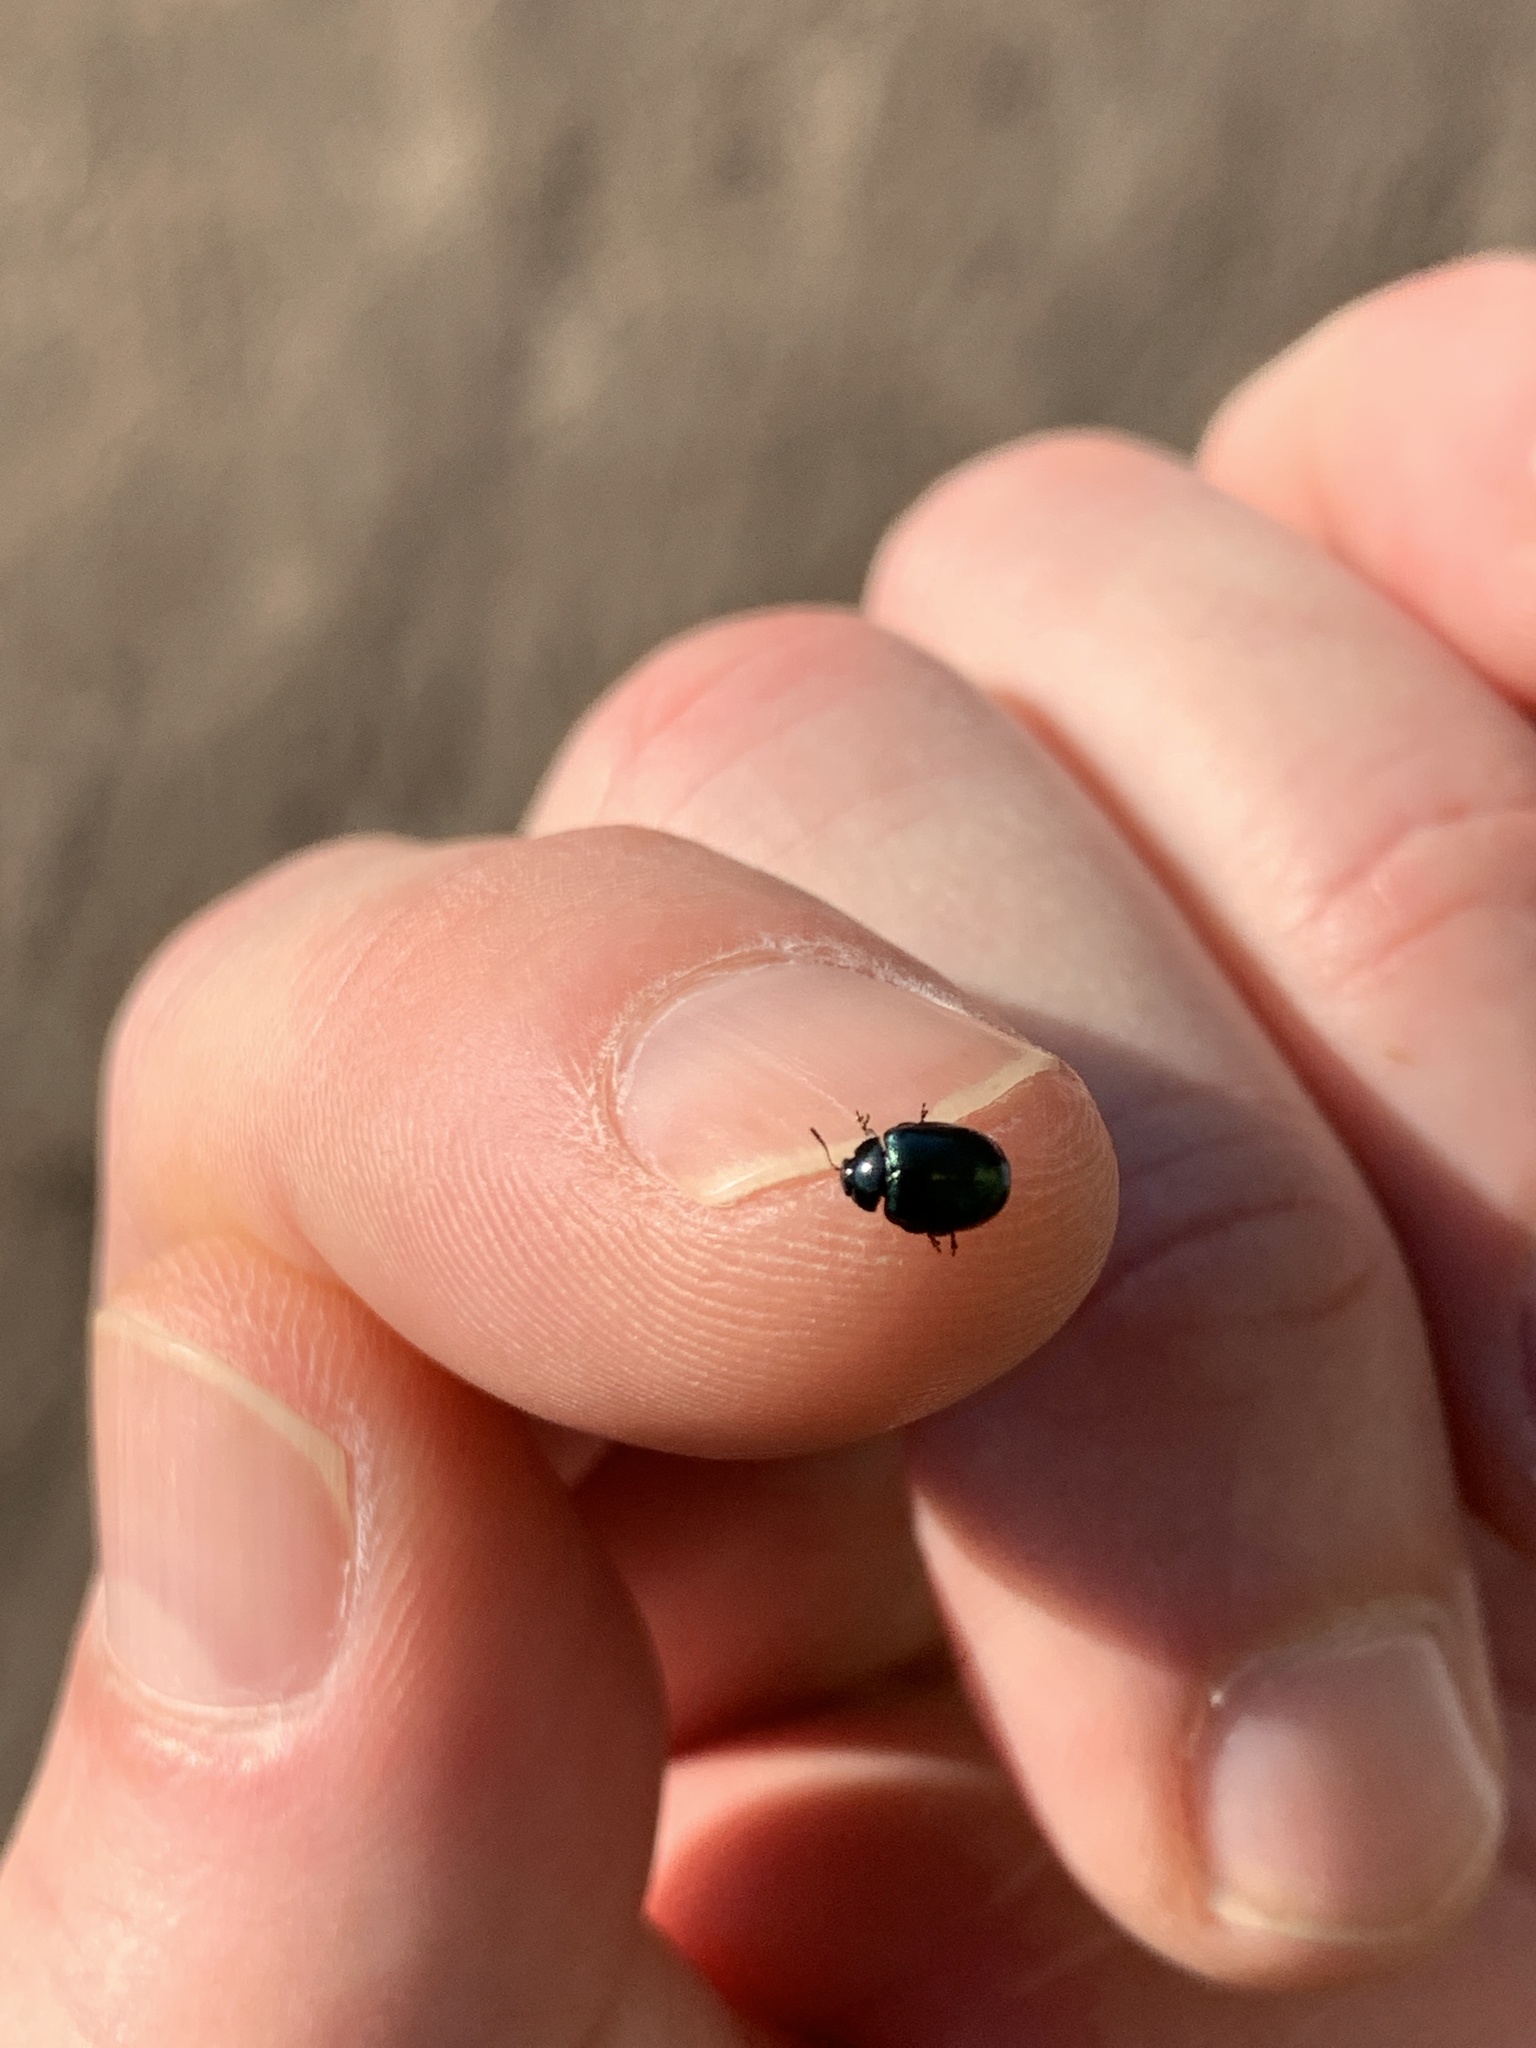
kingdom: Animalia
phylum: Arthropoda
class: Insecta
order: Coleoptera
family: Chrysomelidae
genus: Plagiodera
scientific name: Plagiodera versicolora
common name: Imported willow leaf beetle
